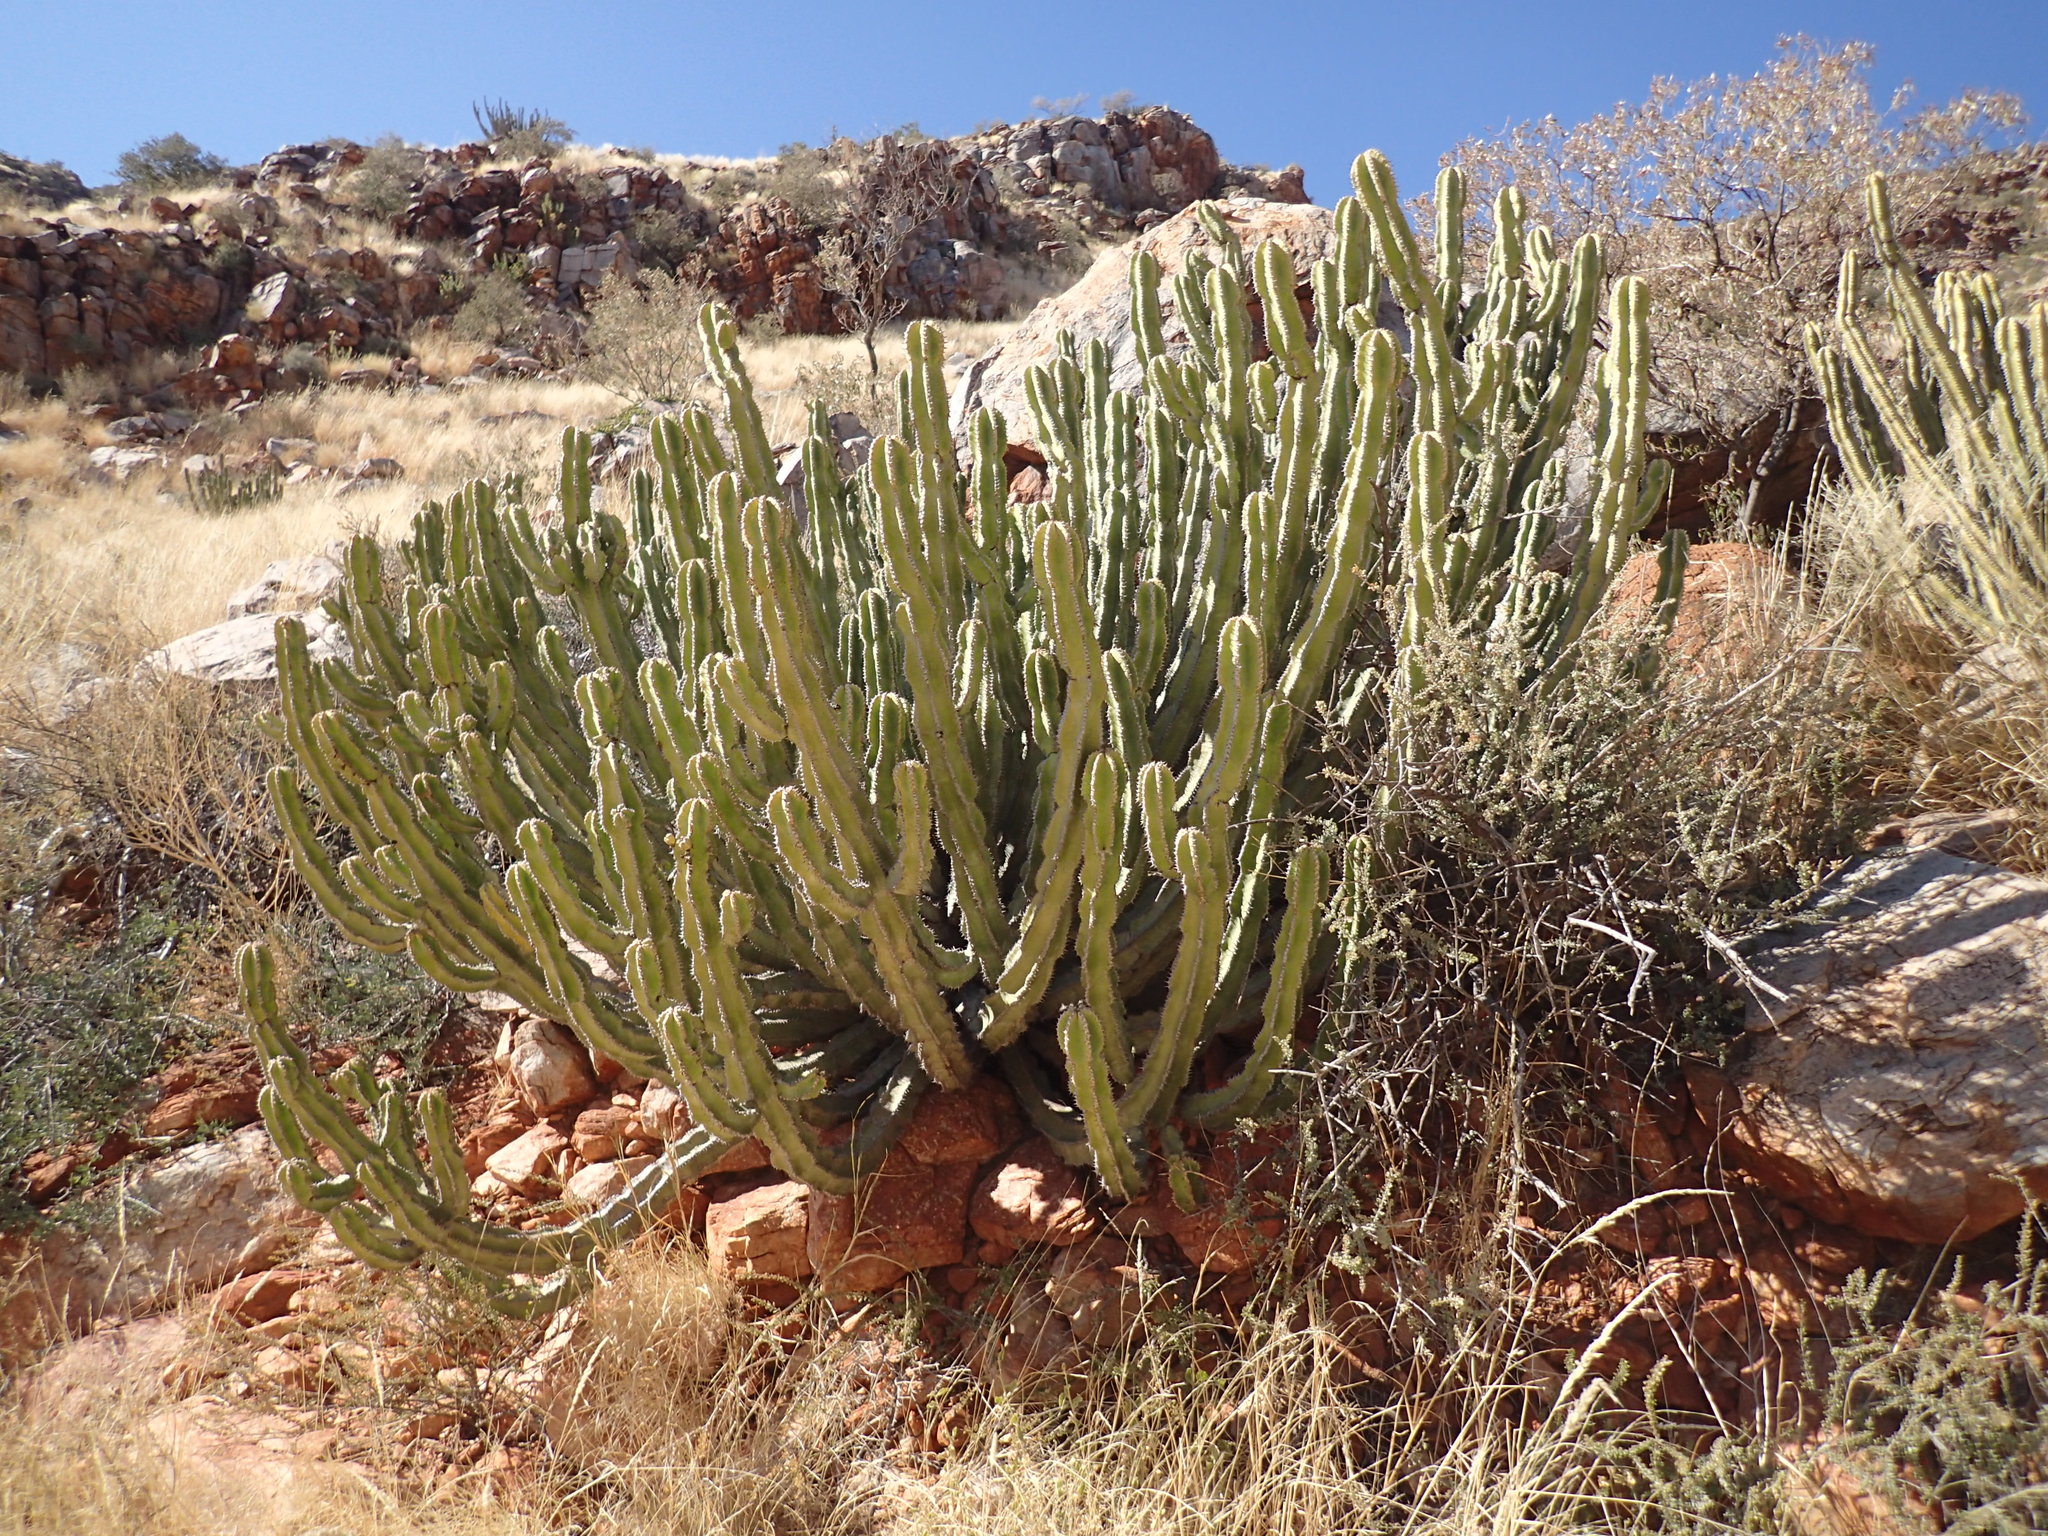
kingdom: Plantae
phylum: Tracheophyta
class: Magnoliopsida
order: Malpighiales
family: Euphorbiaceae
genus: Euphorbia
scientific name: Euphorbia avasmontana
